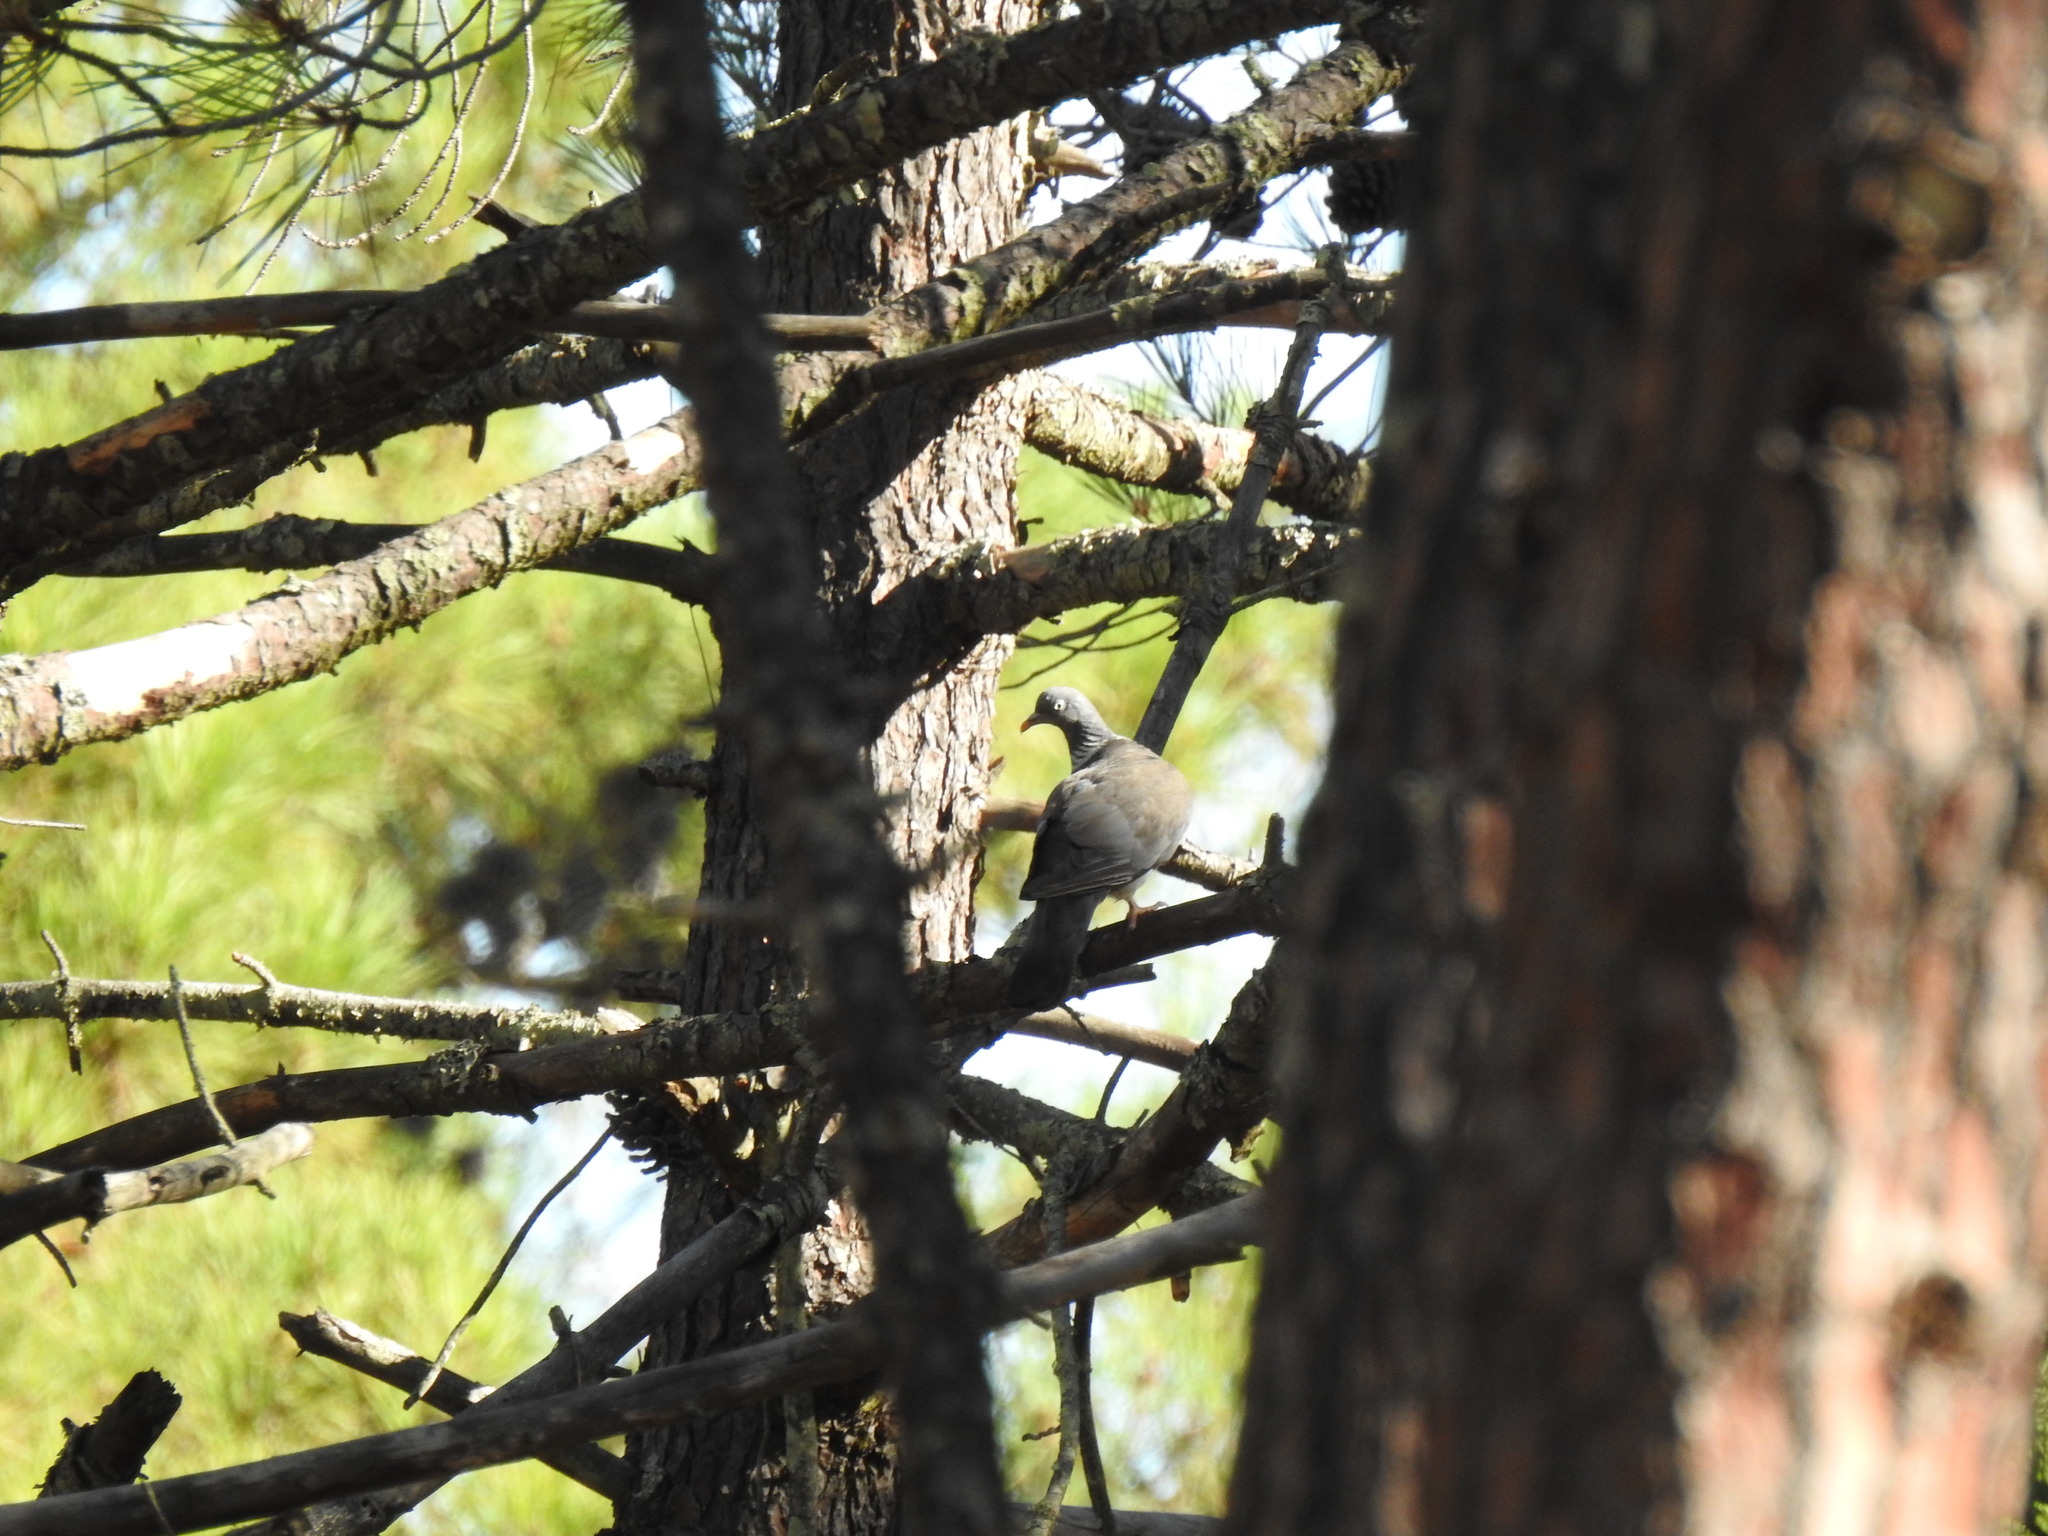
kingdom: Animalia
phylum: Chordata
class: Aves
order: Columbiformes
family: Columbidae
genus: Columba
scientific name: Columba palumbus
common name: Common wood pigeon
